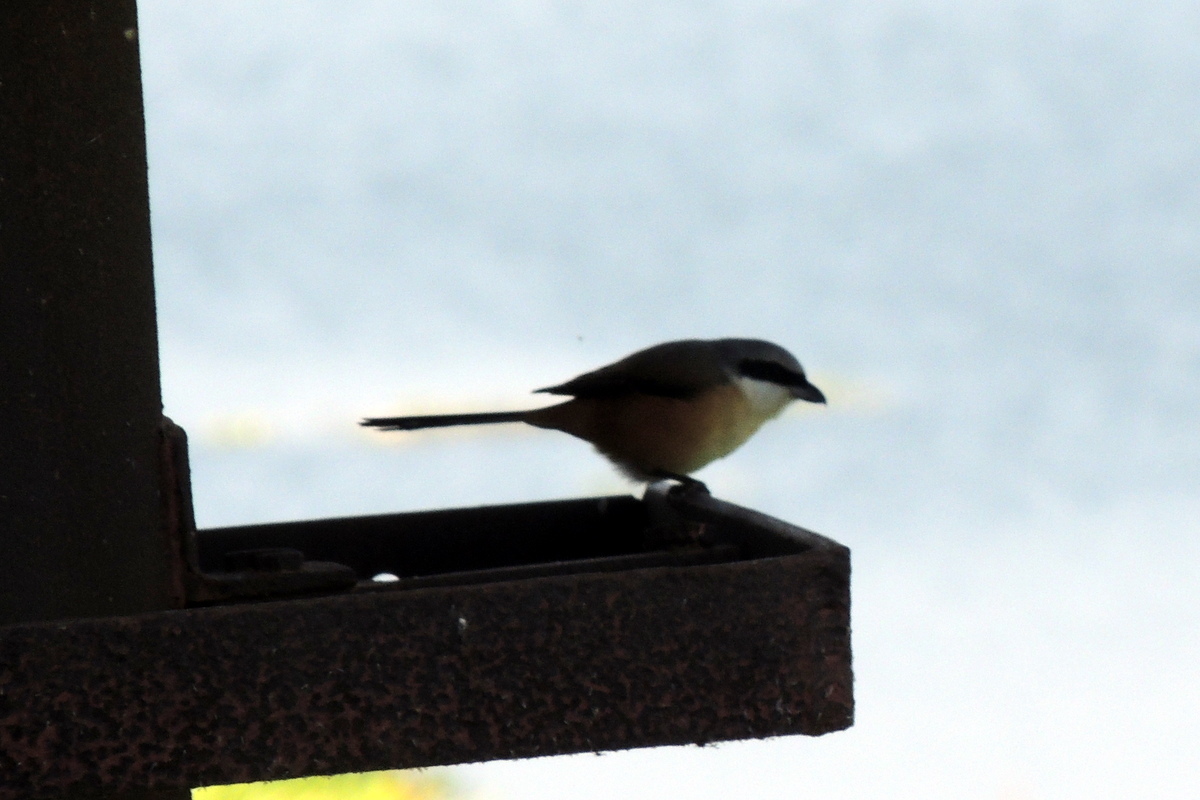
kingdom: Animalia
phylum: Chordata
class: Aves
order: Passeriformes
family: Laniidae
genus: Lanius
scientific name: Lanius schach
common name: Long-tailed shrike
